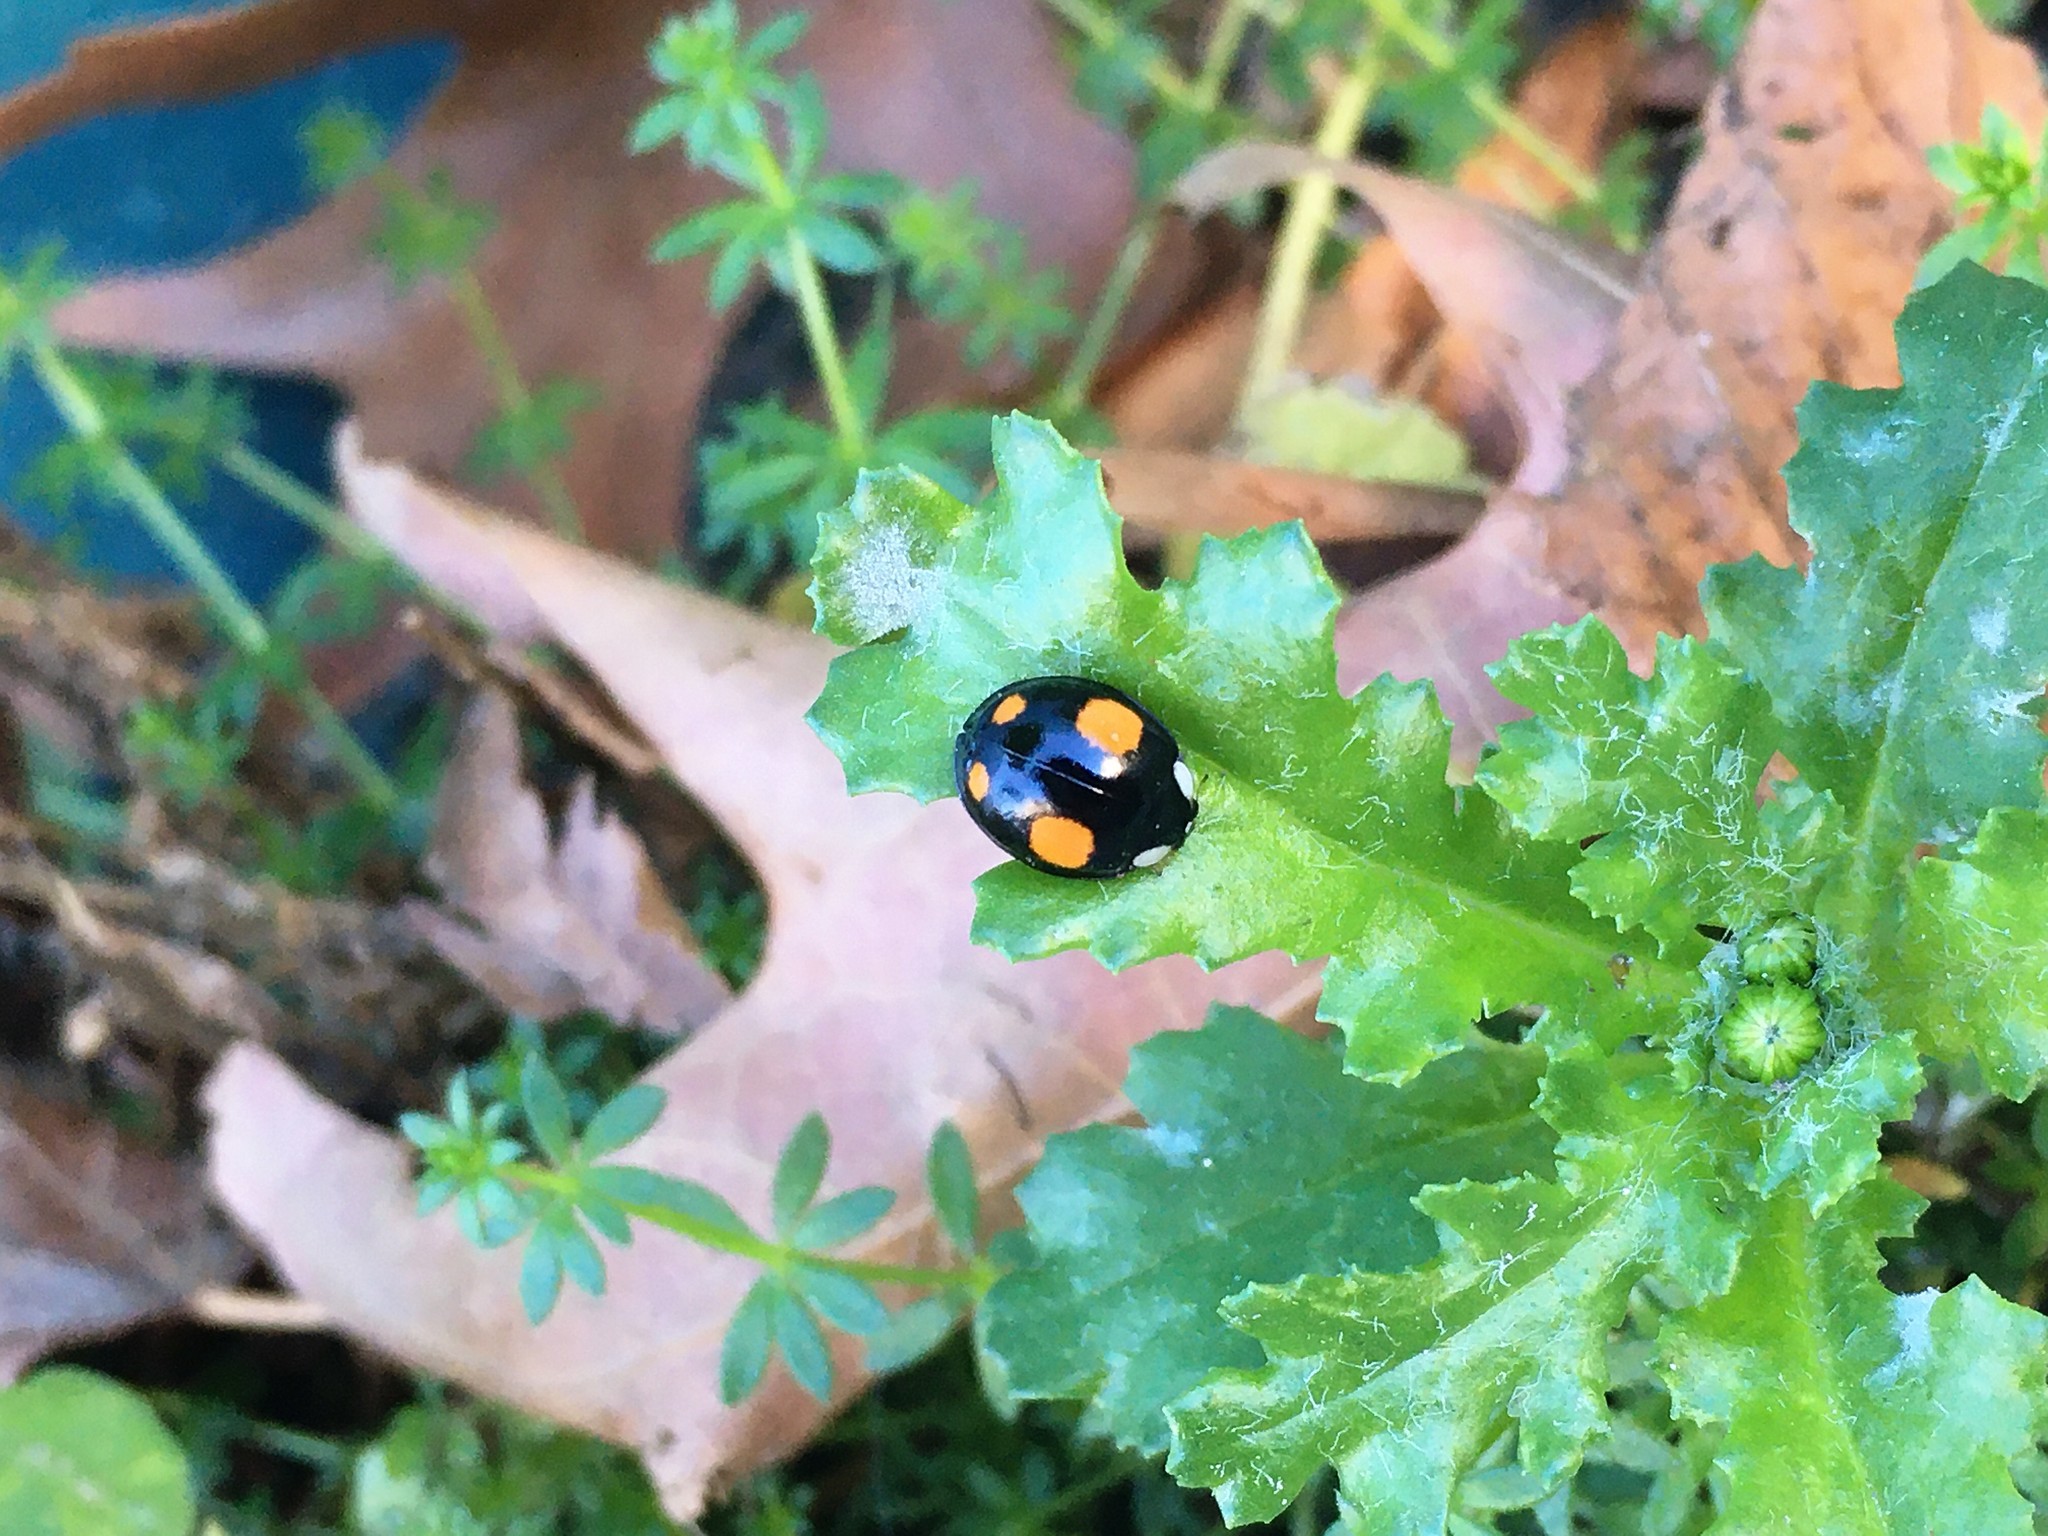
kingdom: Animalia
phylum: Arthropoda
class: Insecta
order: Coleoptera
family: Coccinellidae
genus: Harmonia
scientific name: Harmonia axyridis
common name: Harlequin ladybird
